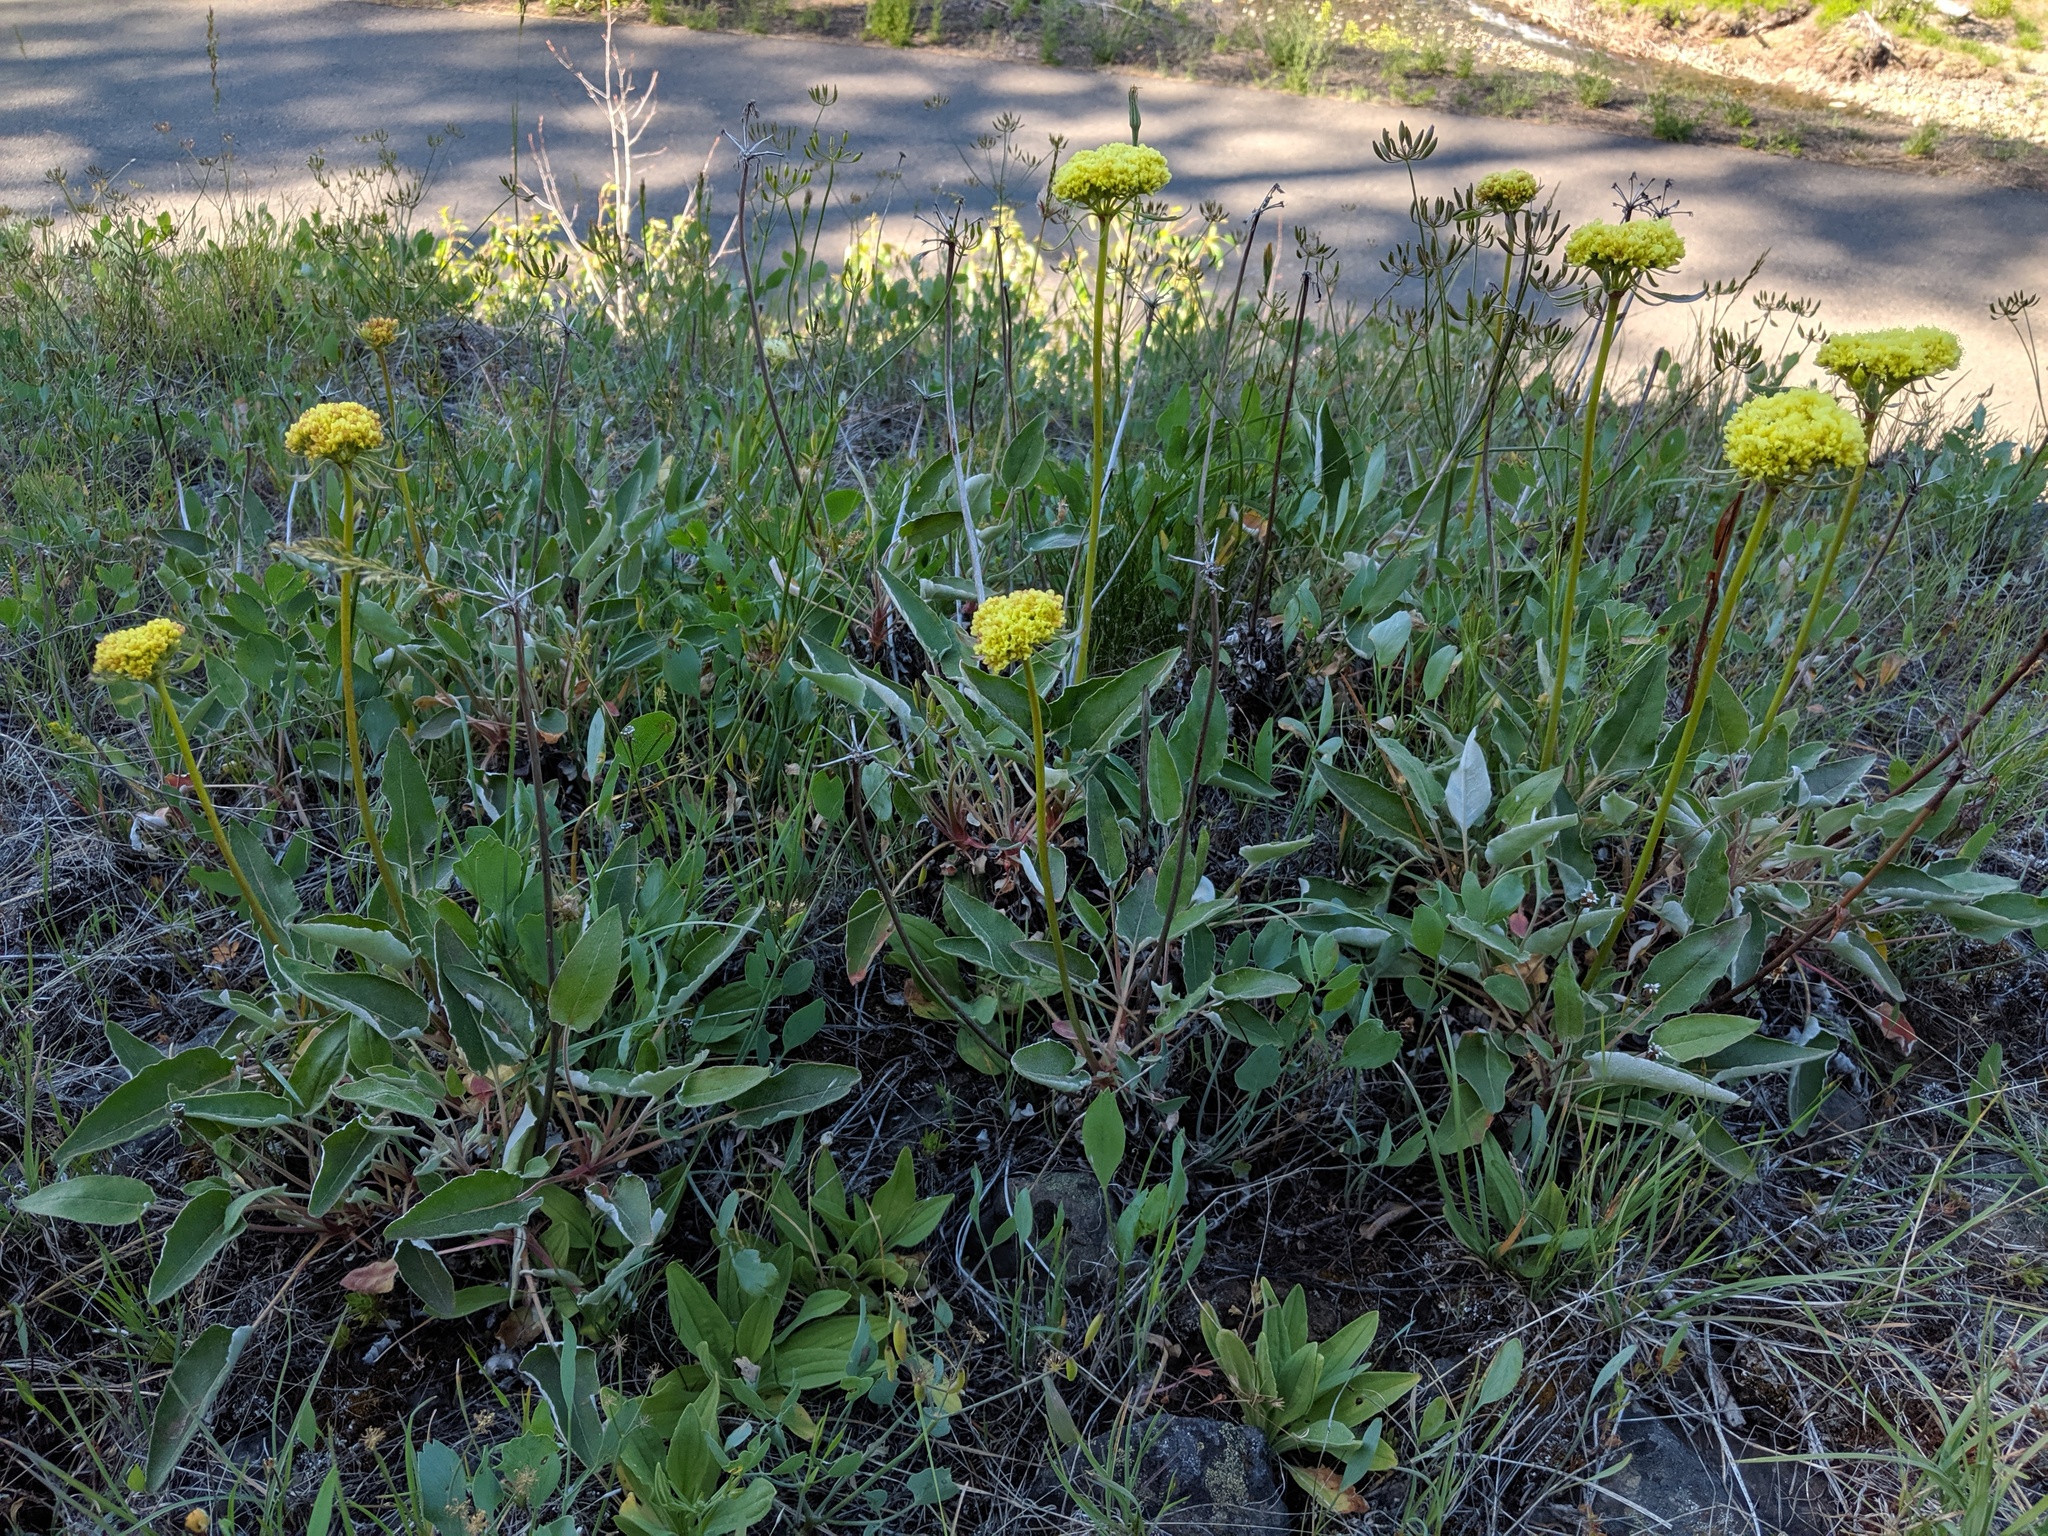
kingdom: Plantae
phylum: Tracheophyta
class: Magnoliopsida
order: Caryophyllales
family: Polygonaceae
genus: Eriogonum
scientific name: Eriogonum compositum
